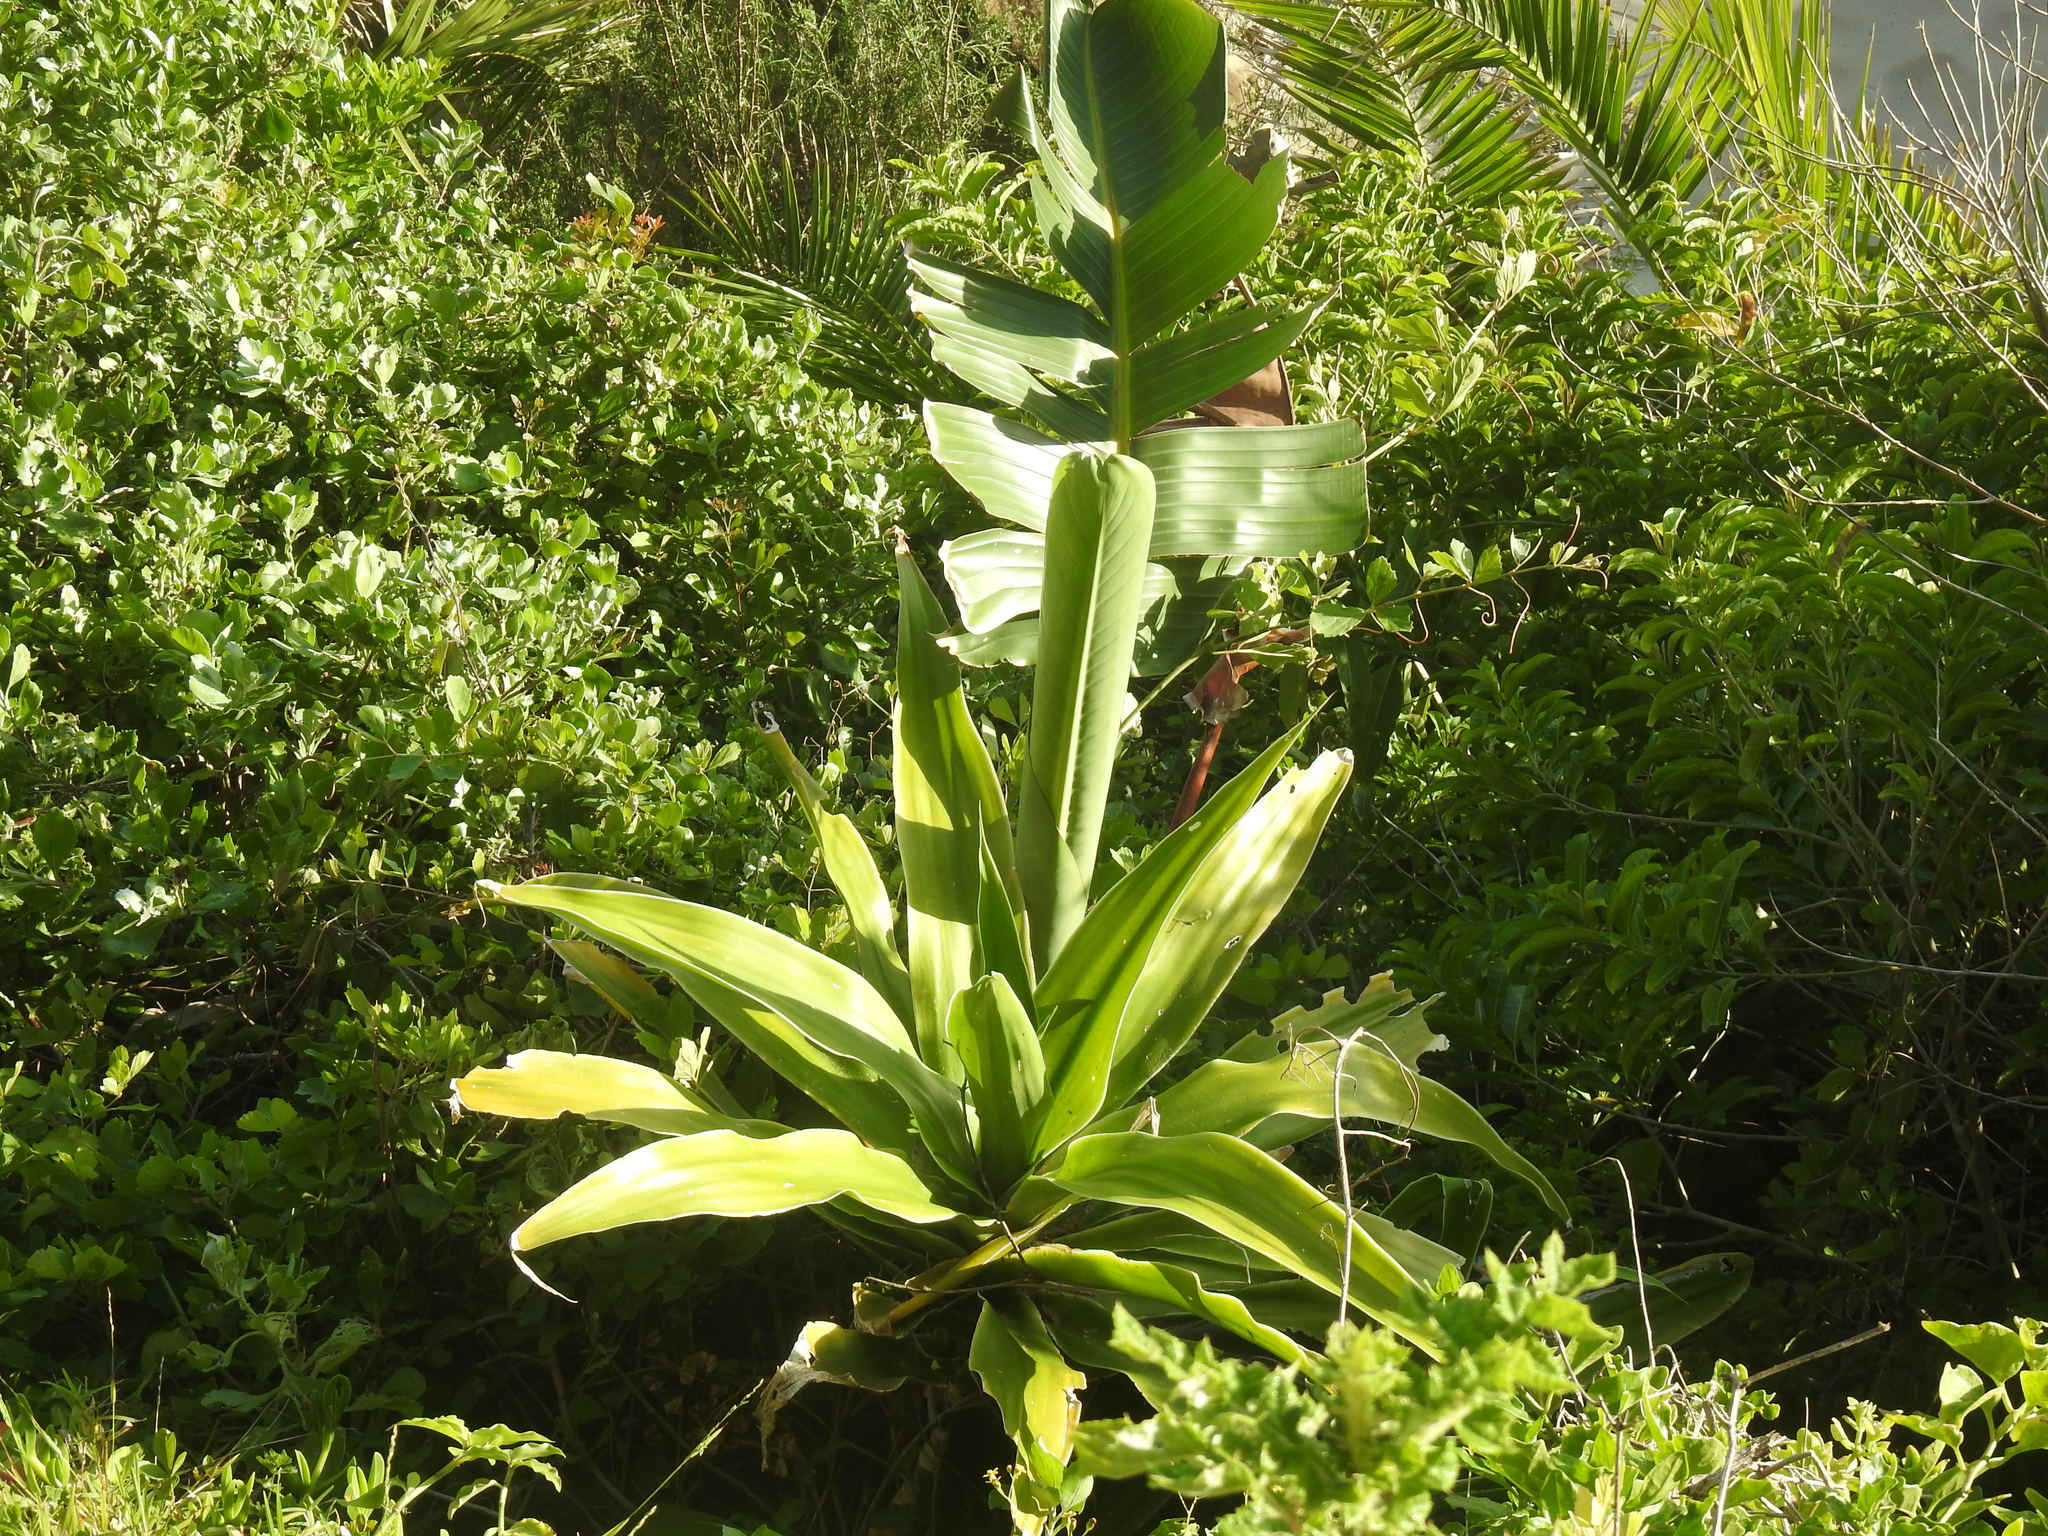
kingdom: Plantae
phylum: Tracheophyta
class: Liliopsida
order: Asparagales
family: Asparagaceae
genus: Dracaena
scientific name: Dracaena aletriformis
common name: Large-leaved dragon tree
